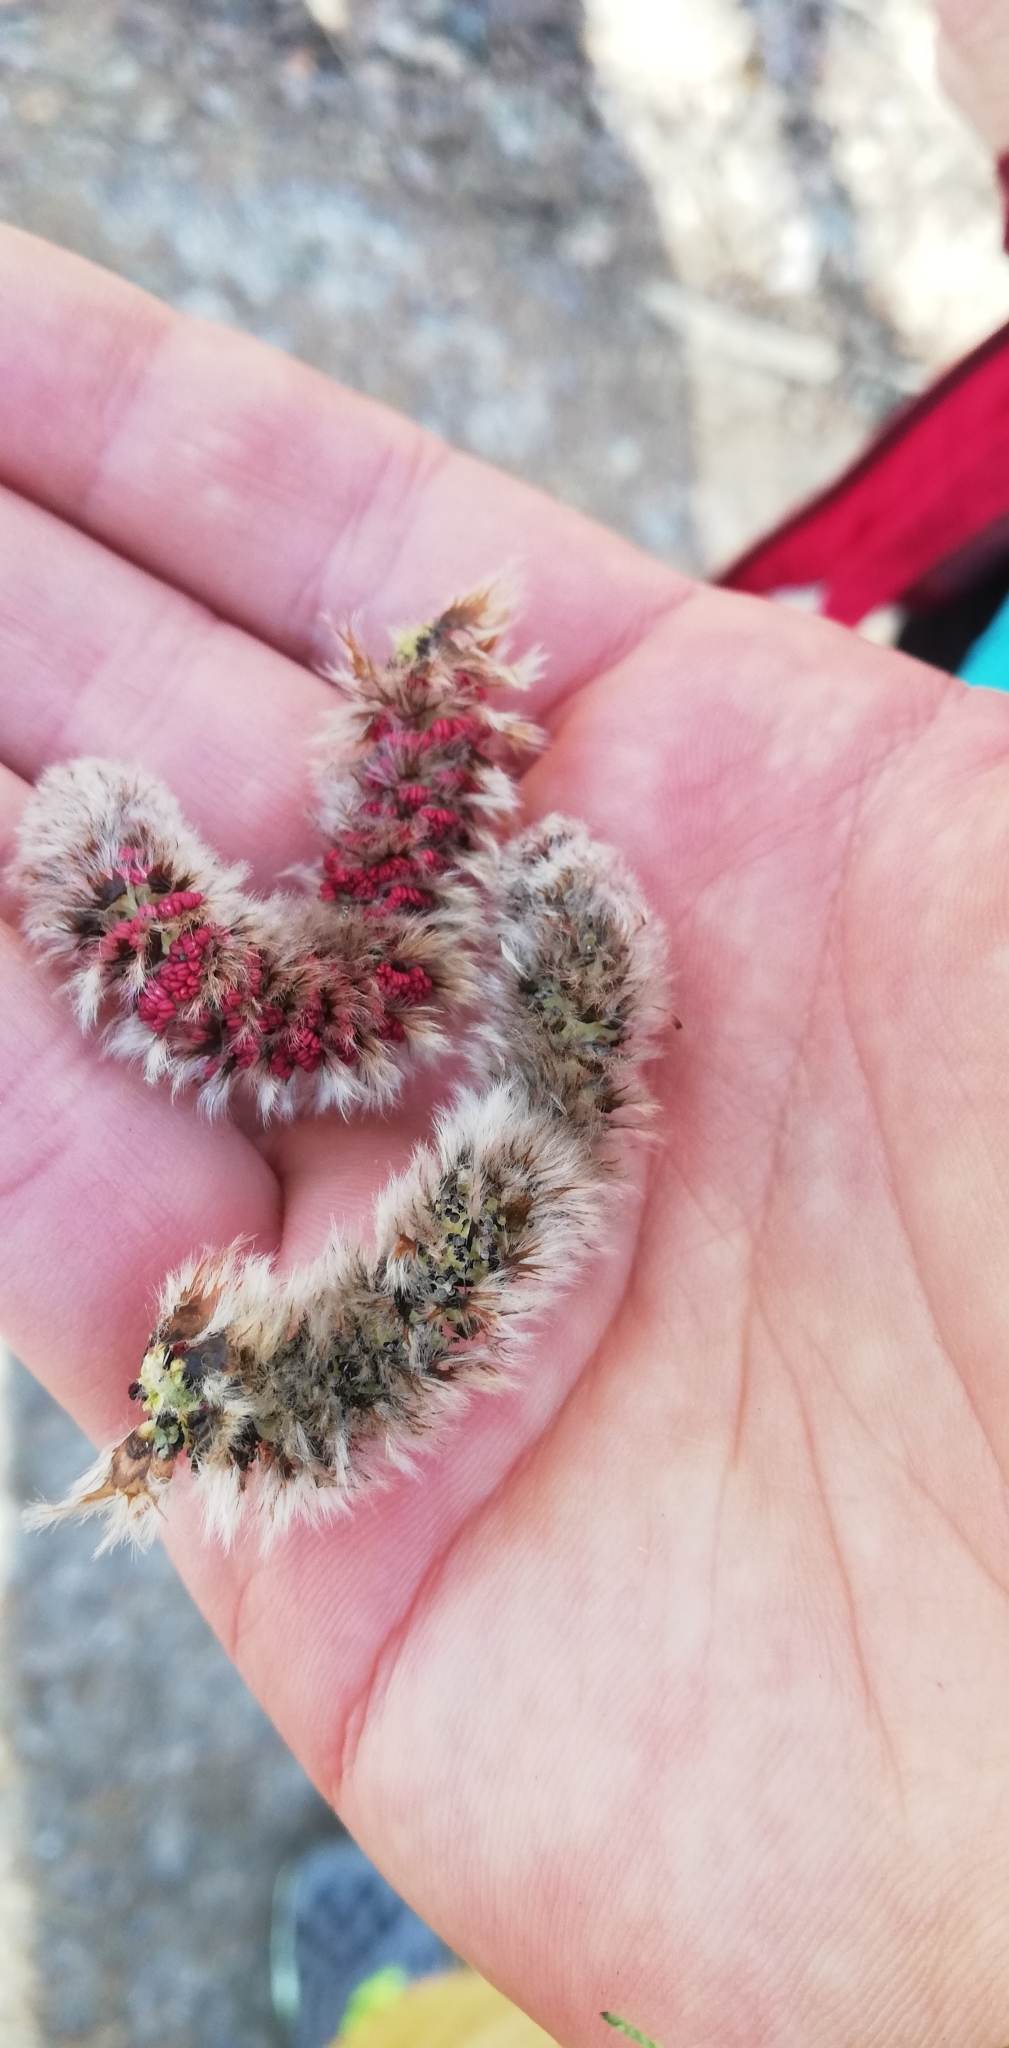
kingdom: Plantae
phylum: Tracheophyta
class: Magnoliopsida
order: Malpighiales
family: Salicaceae
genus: Populus
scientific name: Populus tremula
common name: European aspen
